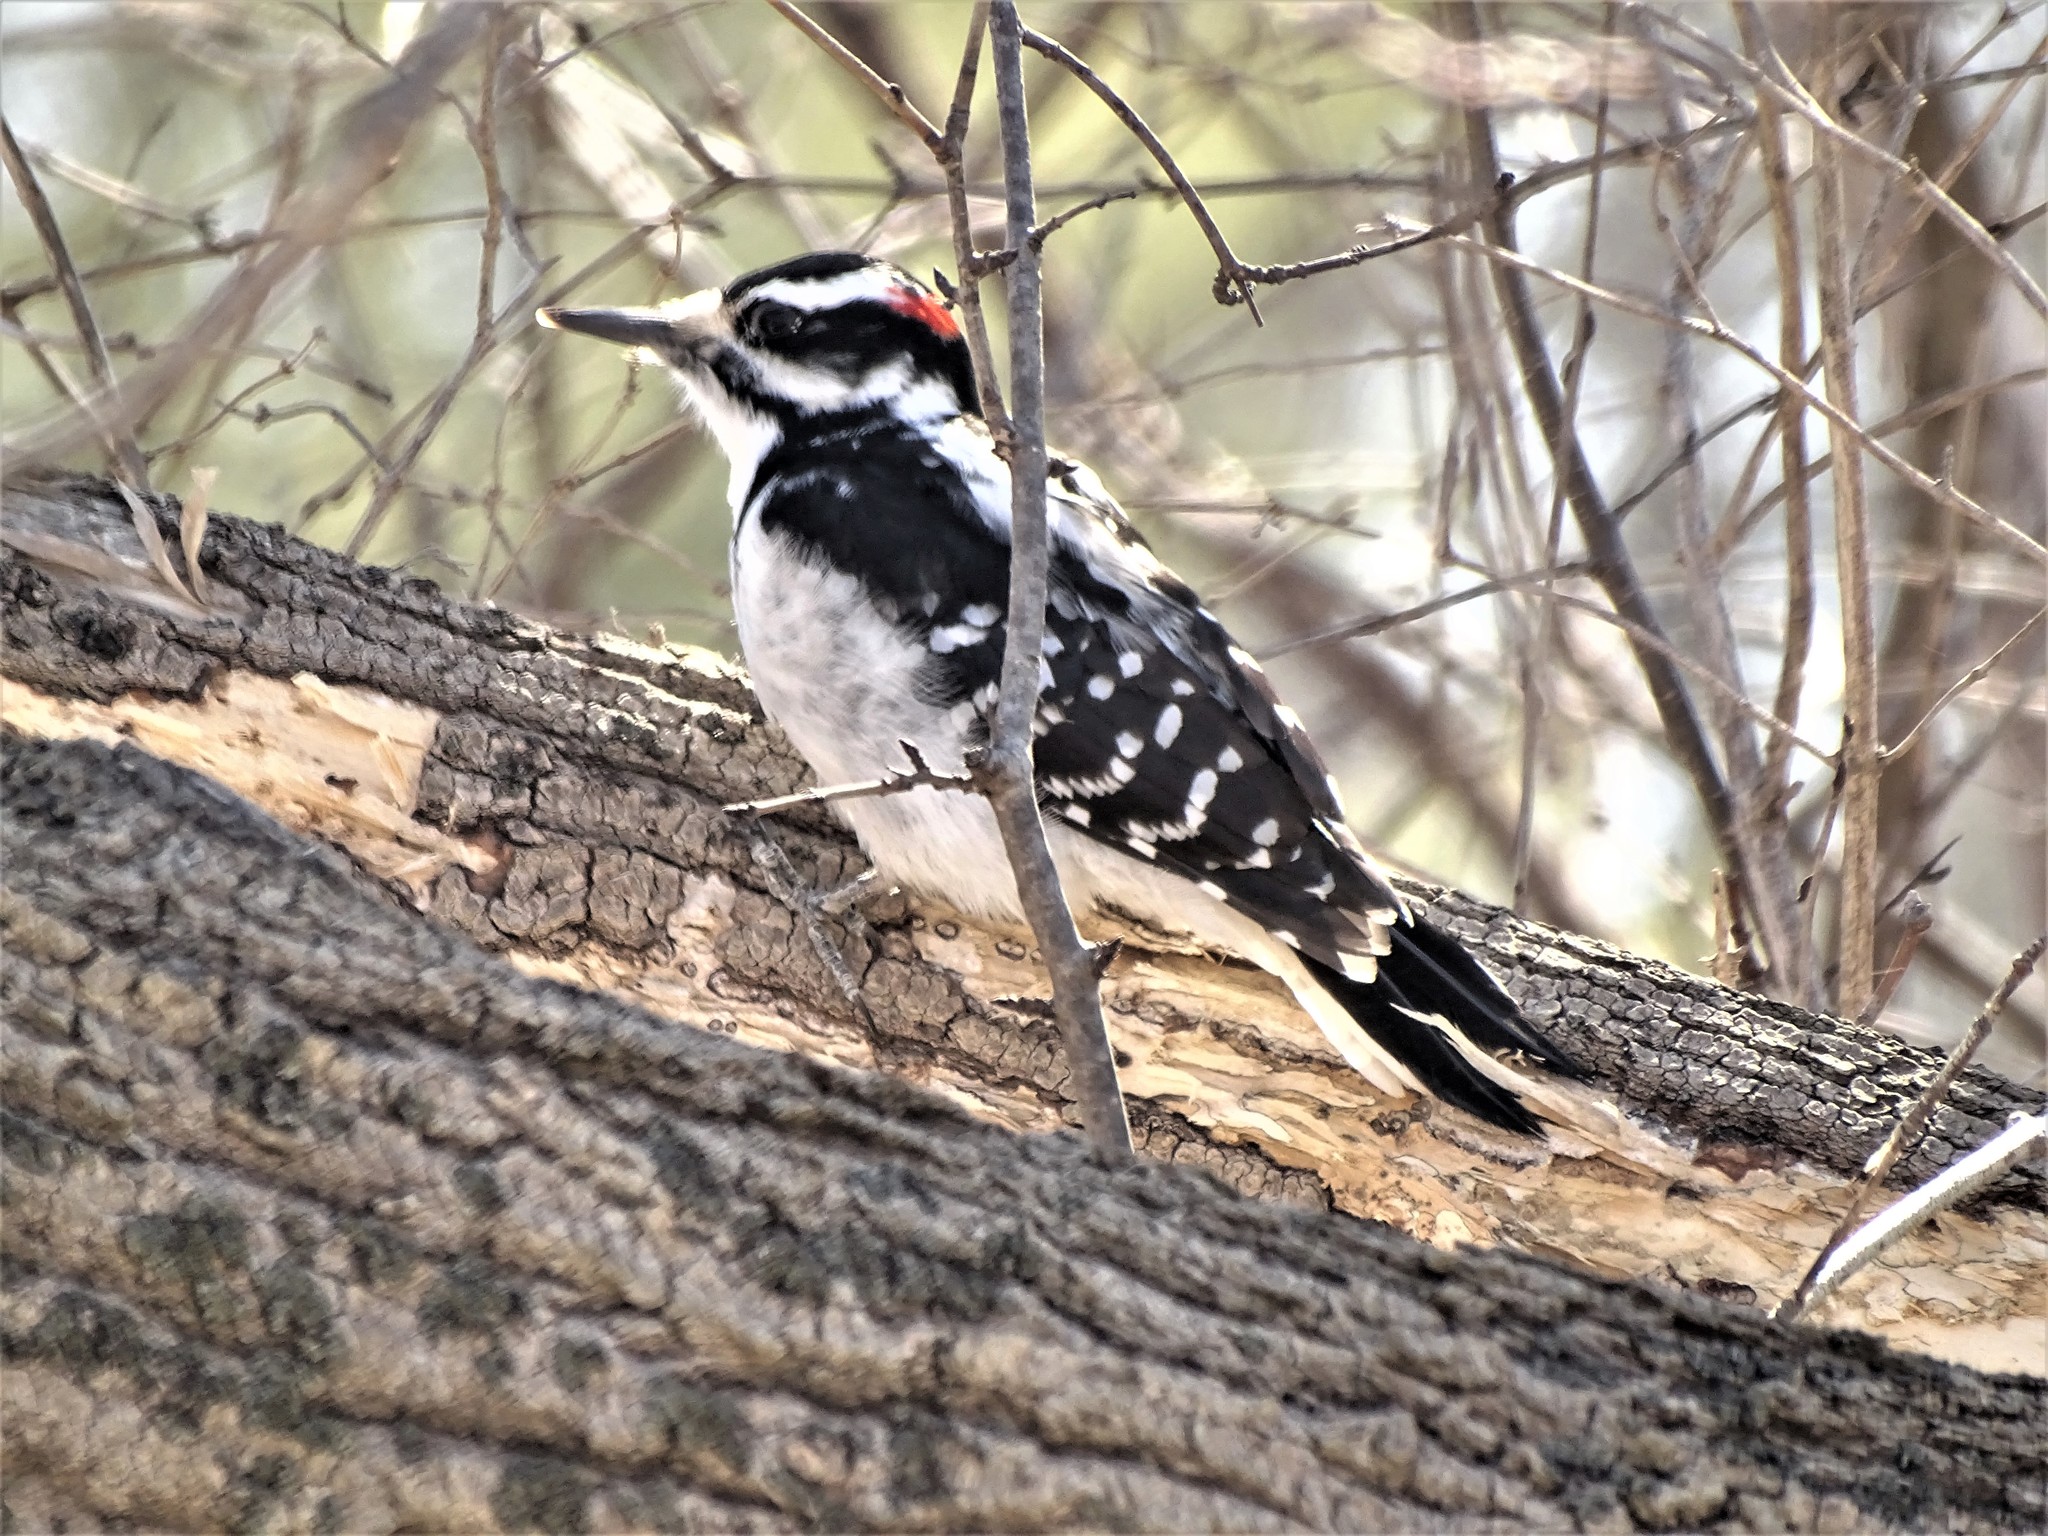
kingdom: Animalia
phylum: Chordata
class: Aves
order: Piciformes
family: Picidae
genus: Leuconotopicus
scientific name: Leuconotopicus villosus
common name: Hairy woodpecker
